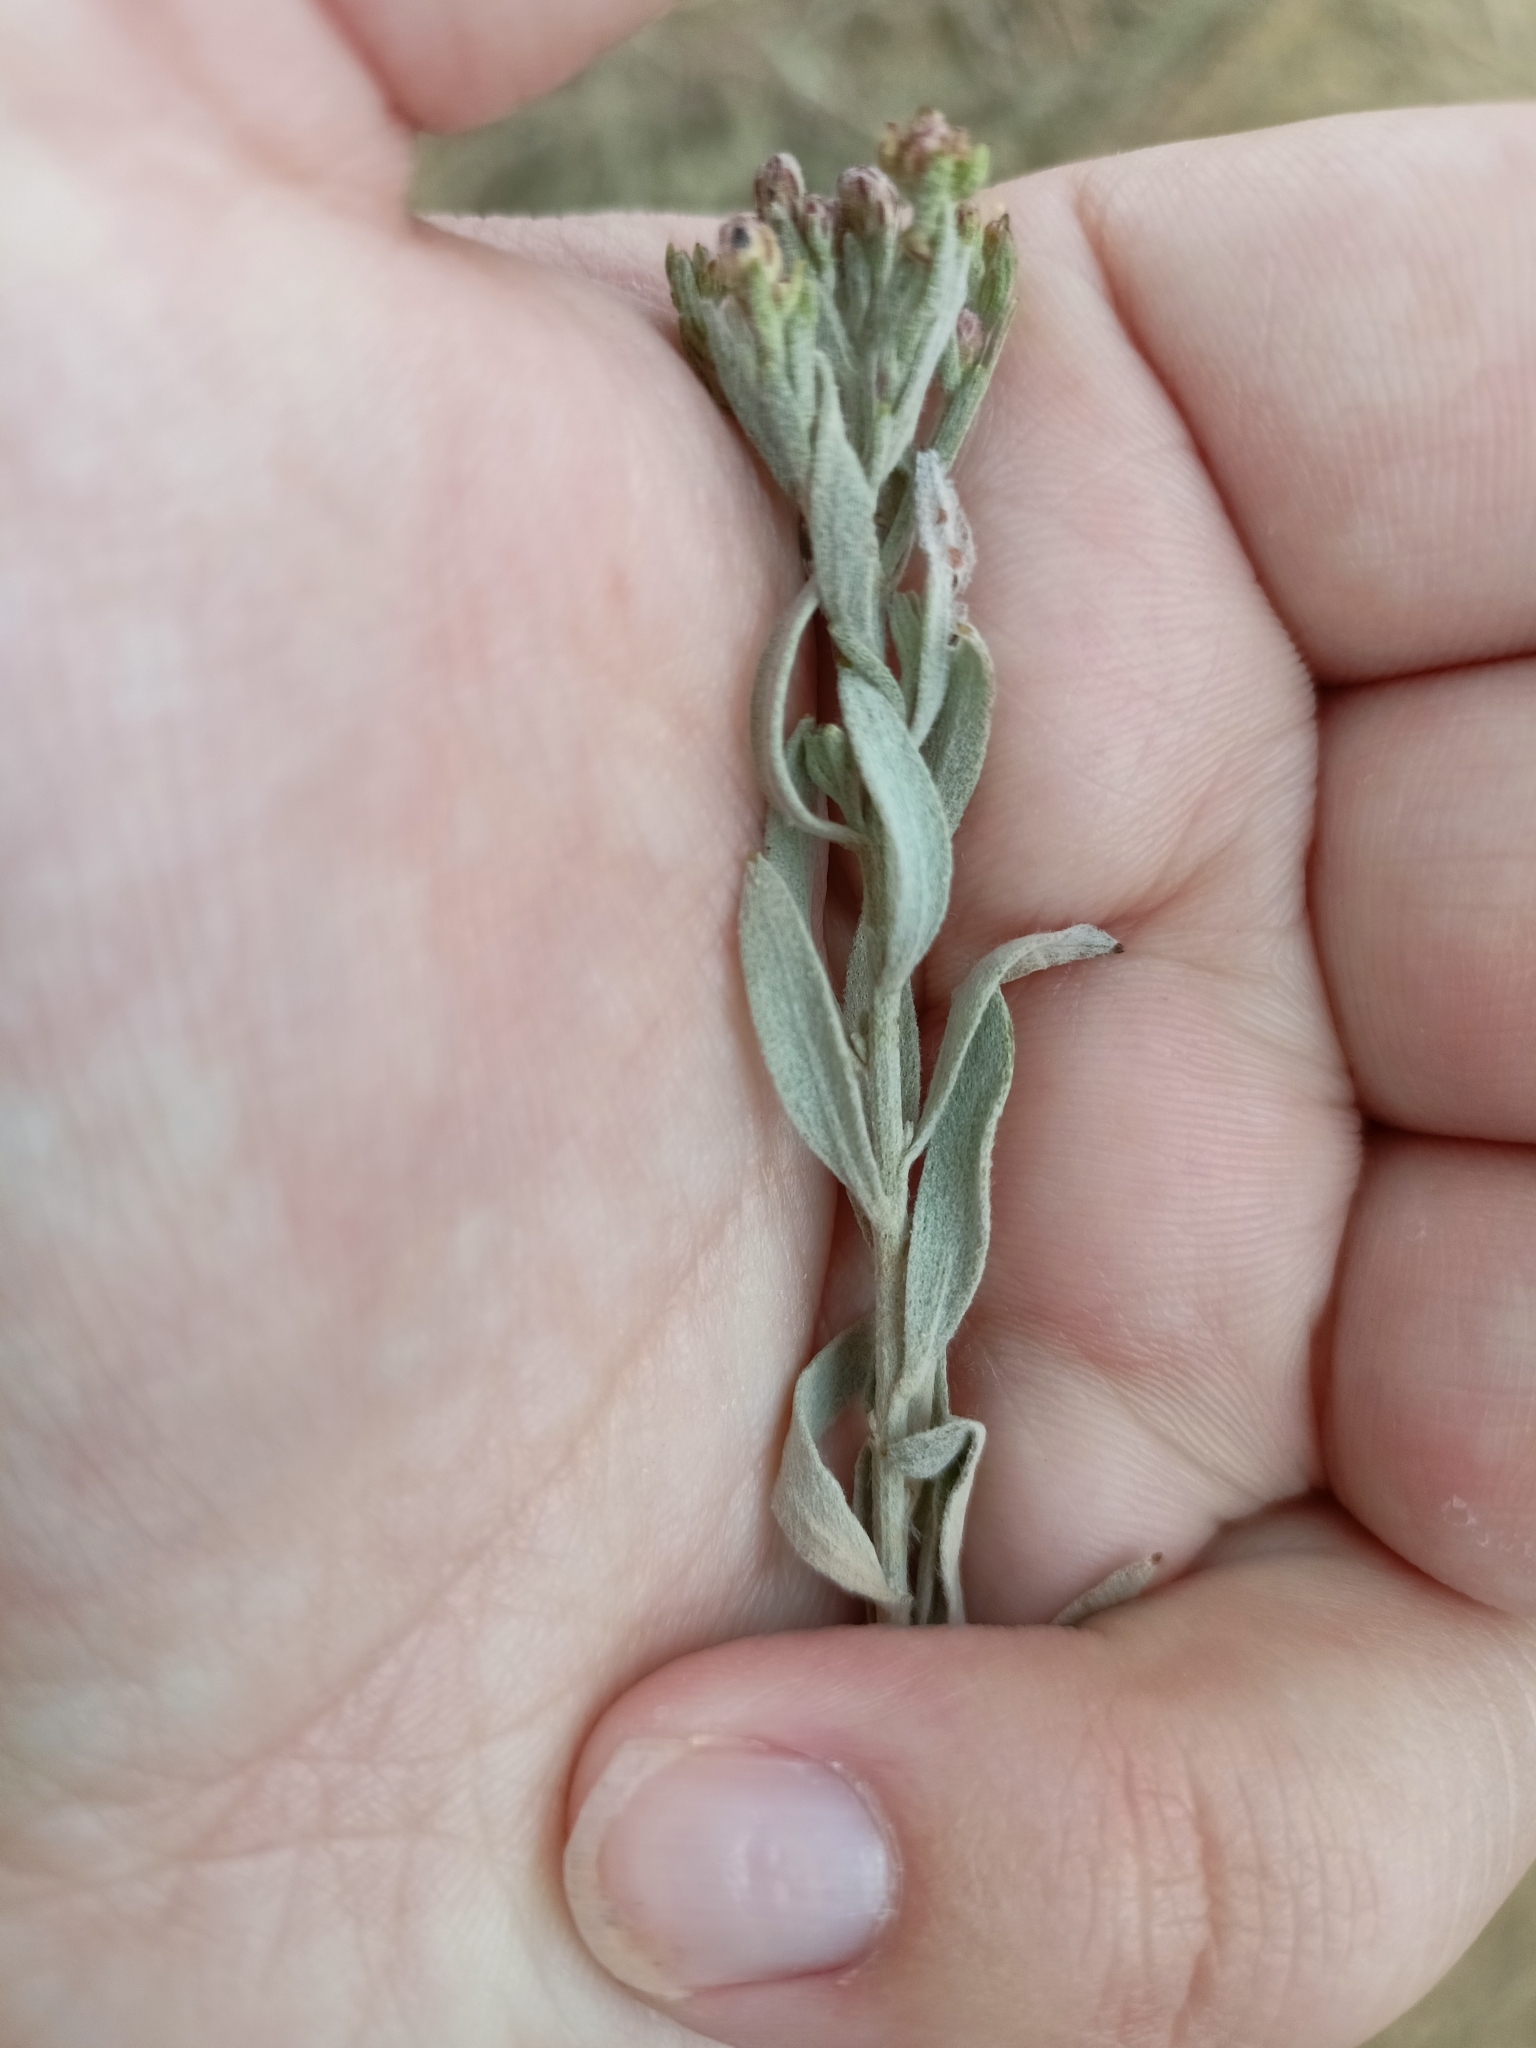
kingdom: Plantae
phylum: Tracheophyta
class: Magnoliopsida
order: Asterales
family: Asteraceae
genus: Galatella
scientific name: Galatella villosa
